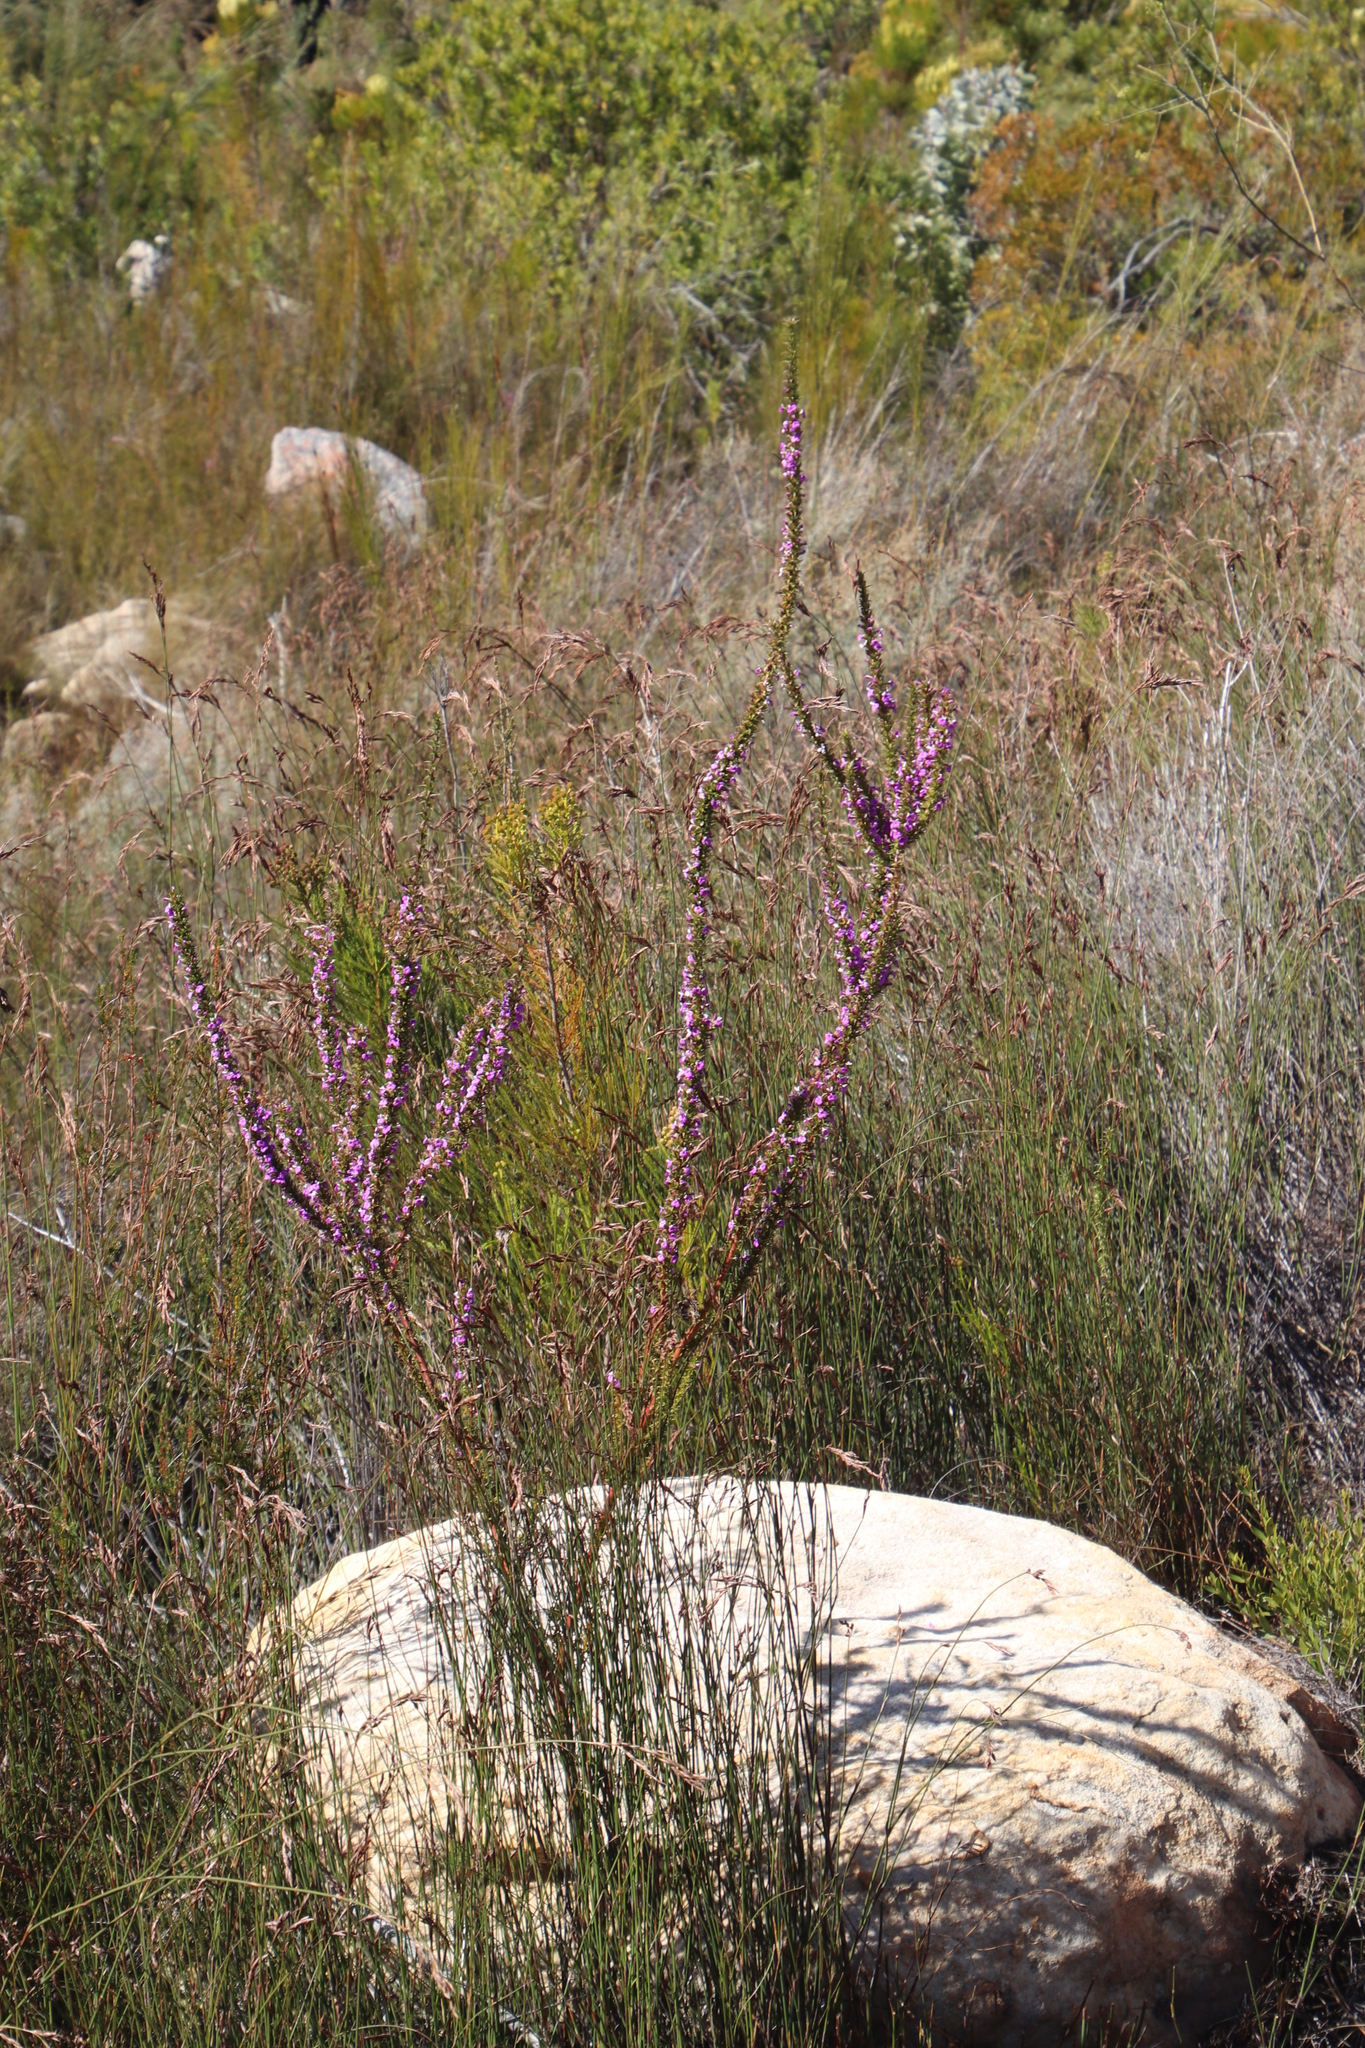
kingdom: Plantae
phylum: Tracheophyta
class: Magnoliopsida
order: Fabales
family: Polygalaceae
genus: Muraltia
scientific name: Muraltia heisteria
